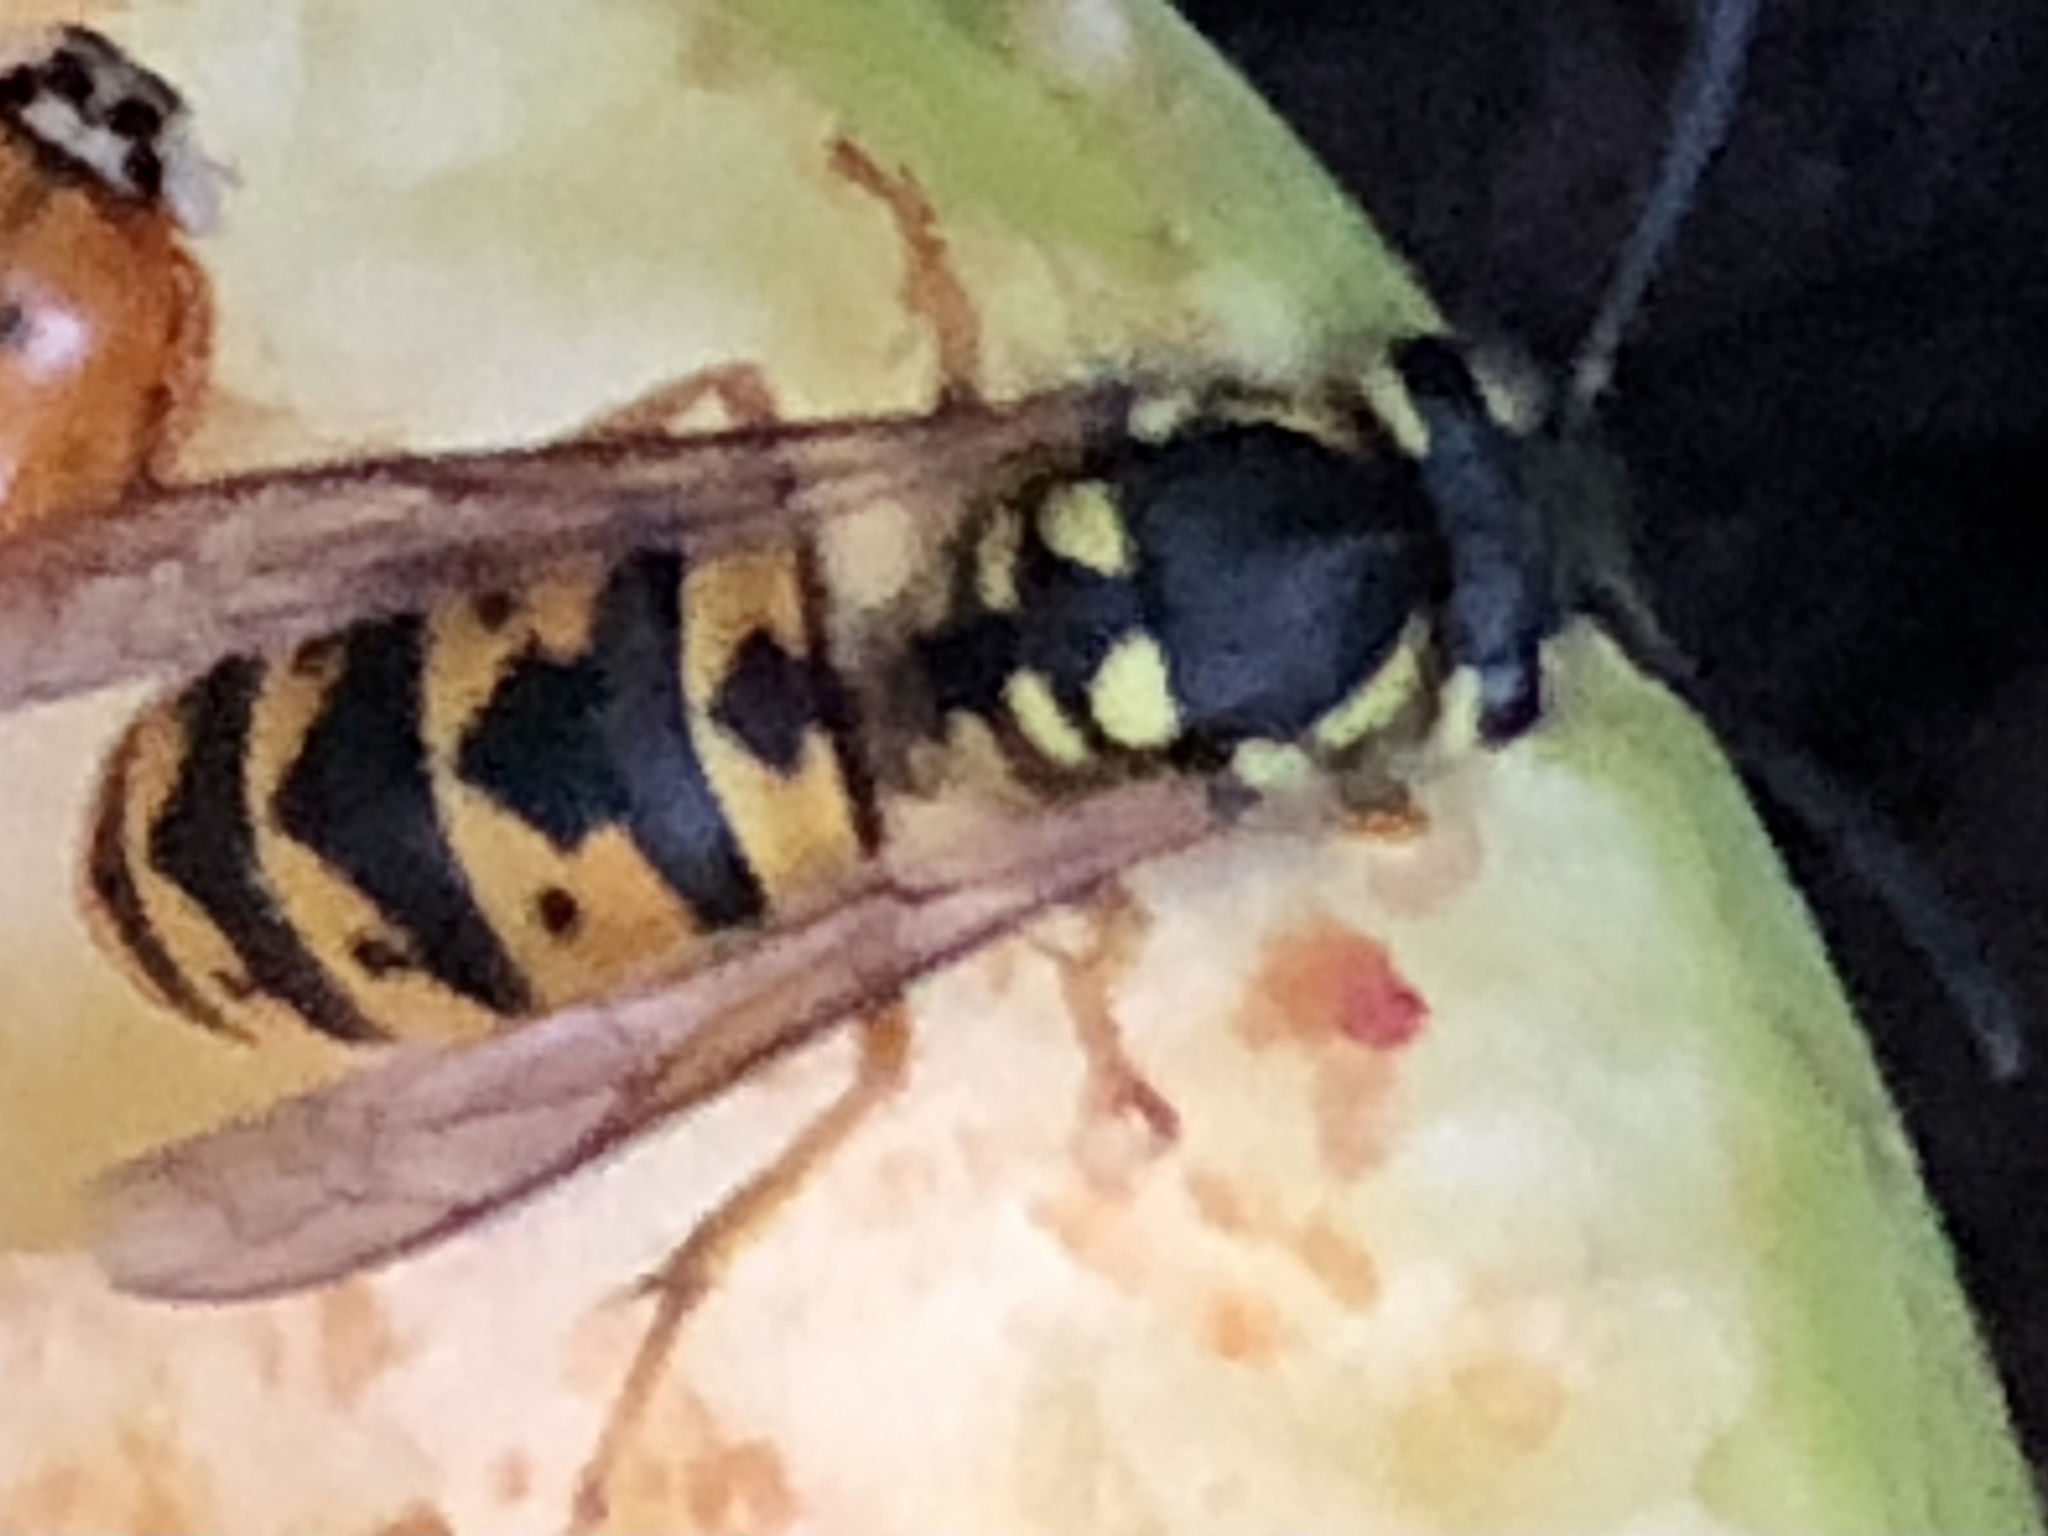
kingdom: Animalia
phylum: Arthropoda
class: Insecta
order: Hymenoptera
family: Vespidae
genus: Vespula
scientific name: Vespula germanica
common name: German wasp
